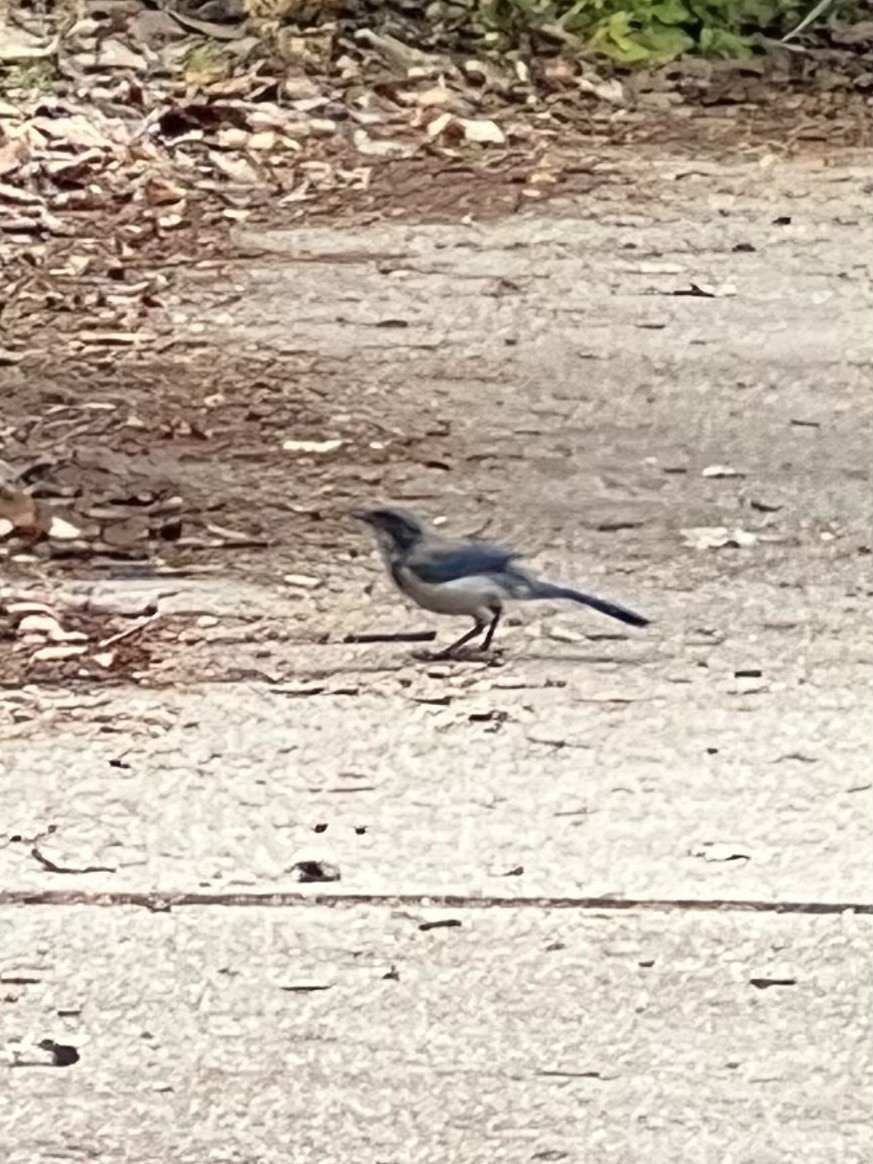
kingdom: Animalia
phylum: Chordata
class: Aves
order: Passeriformes
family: Corvidae
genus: Aphelocoma
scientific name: Aphelocoma californica
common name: California scrub-jay
